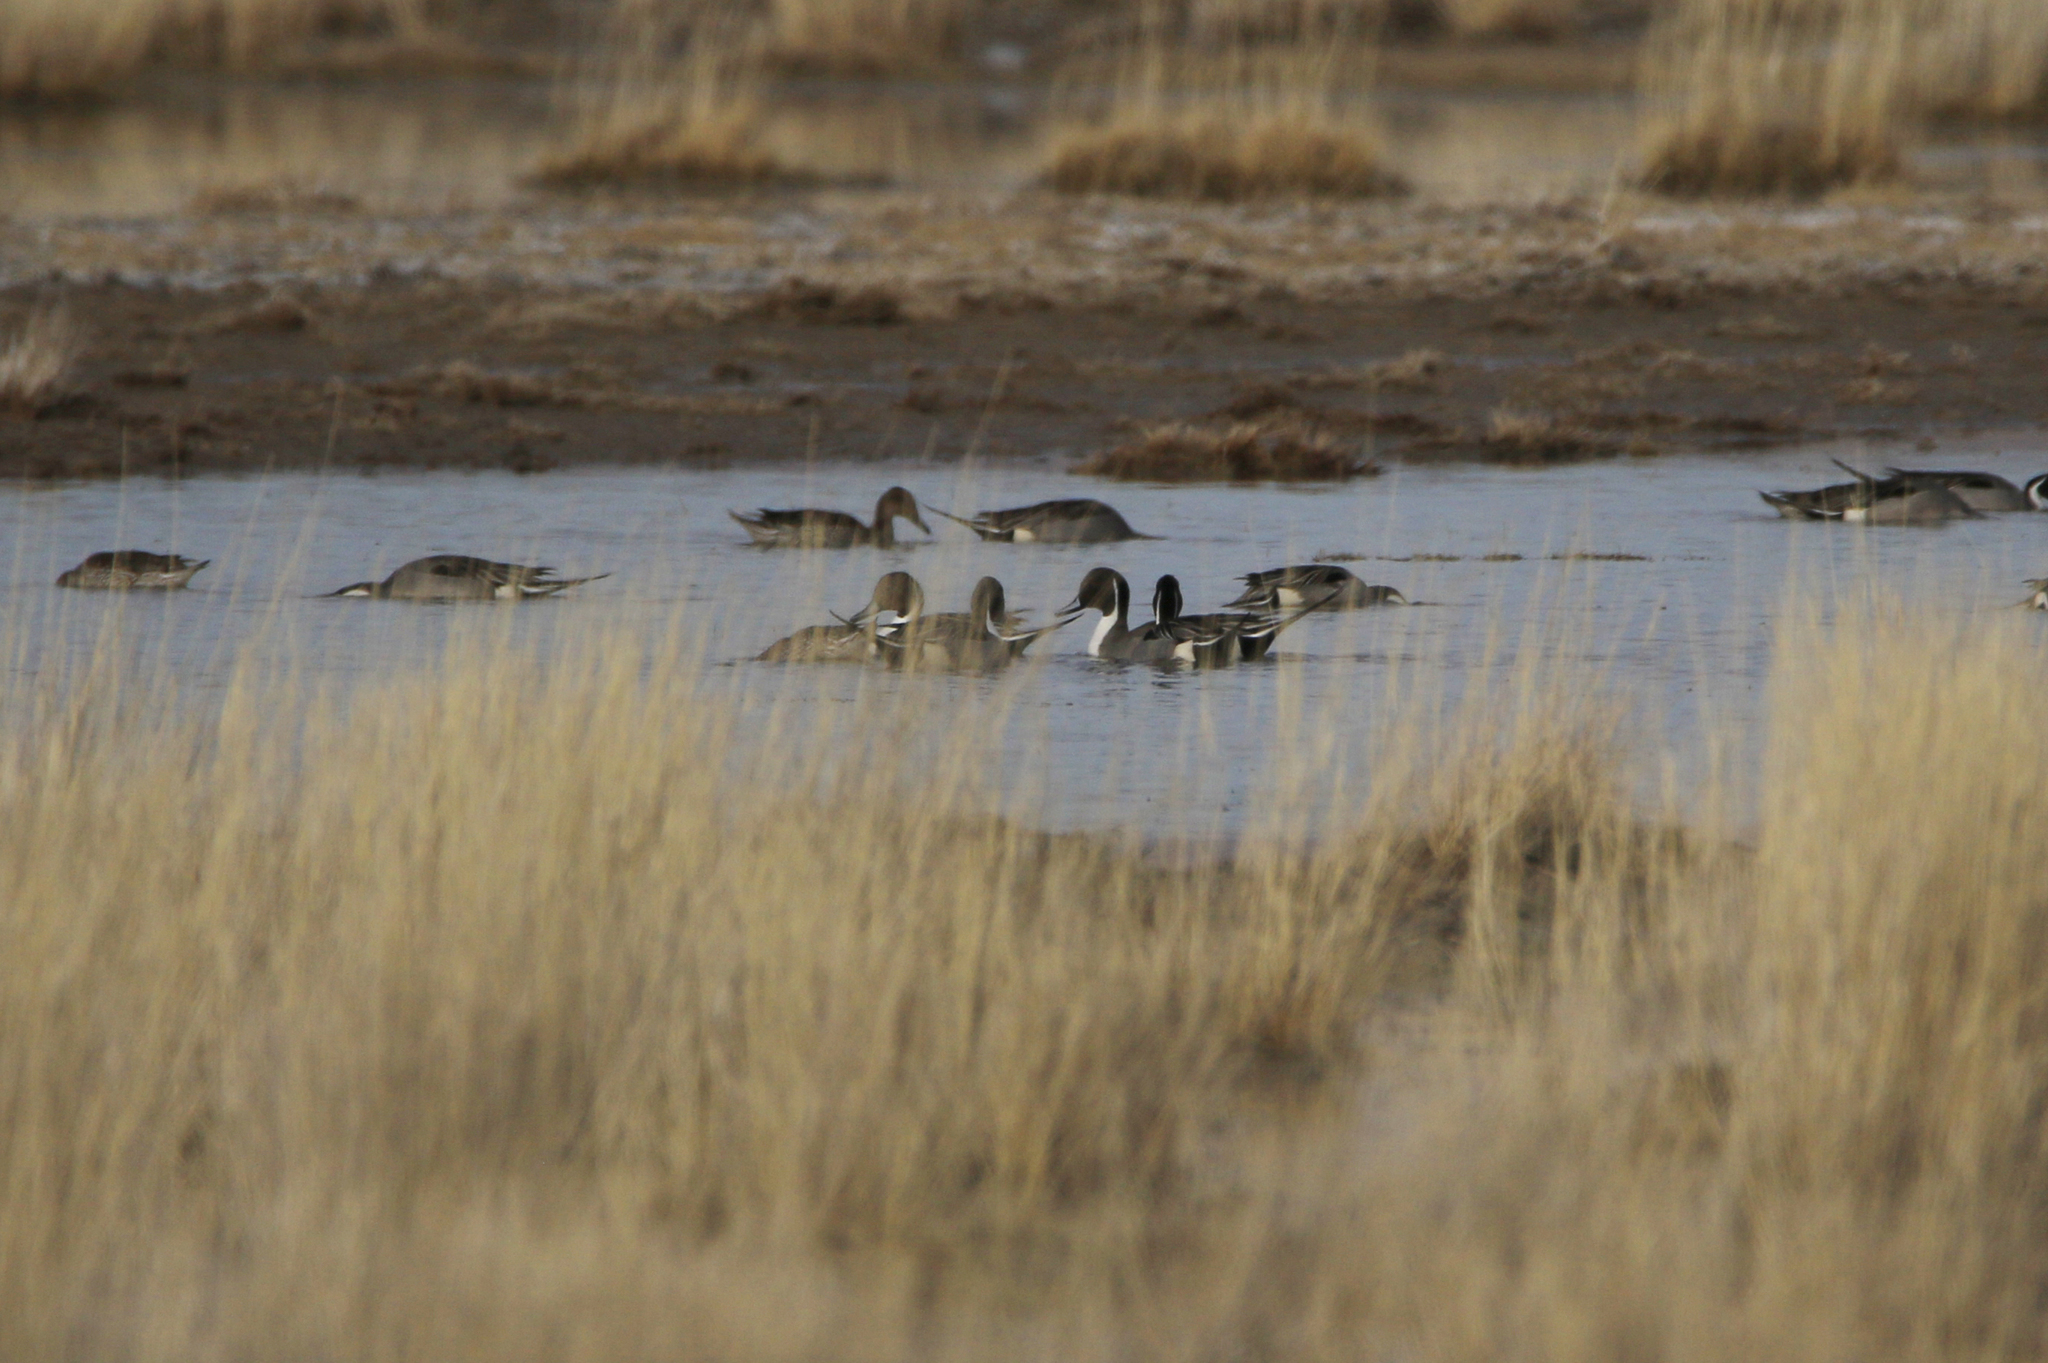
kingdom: Animalia
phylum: Chordata
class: Aves
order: Anseriformes
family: Anatidae
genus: Anas
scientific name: Anas acuta
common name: Northern pintail
